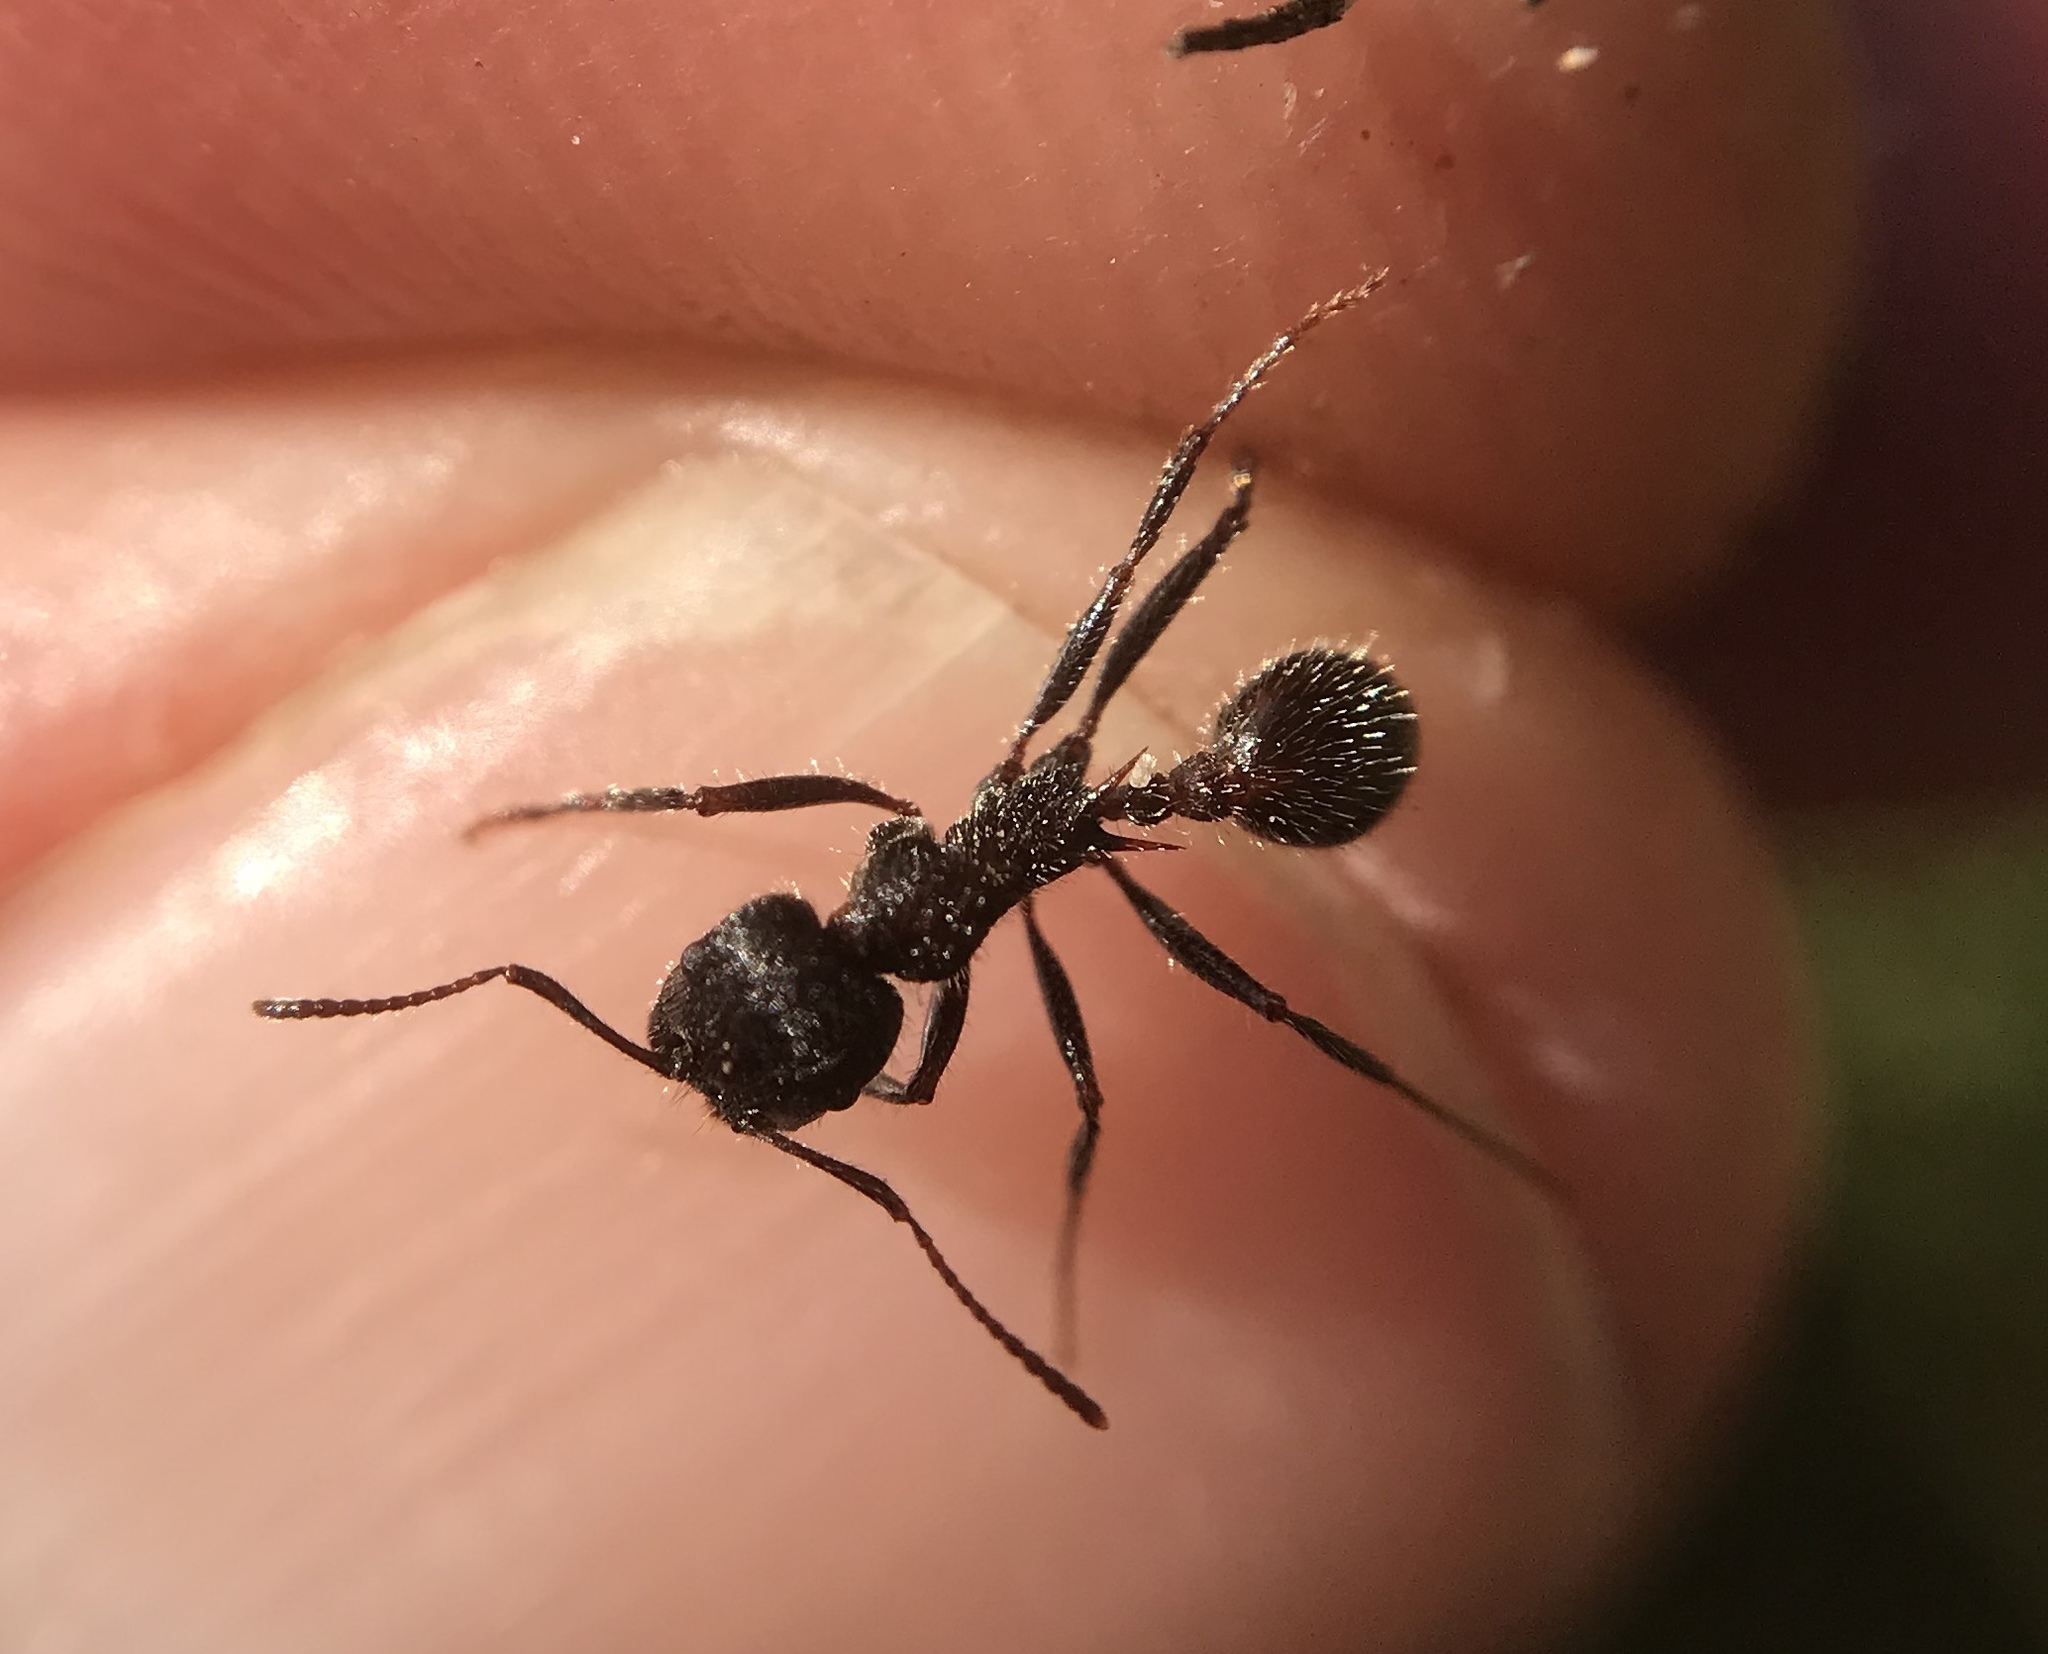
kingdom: Animalia
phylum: Arthropoda
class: Insecta
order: Hymenoptera
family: Formicidae
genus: Veromessor
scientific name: Veromessor andrei
